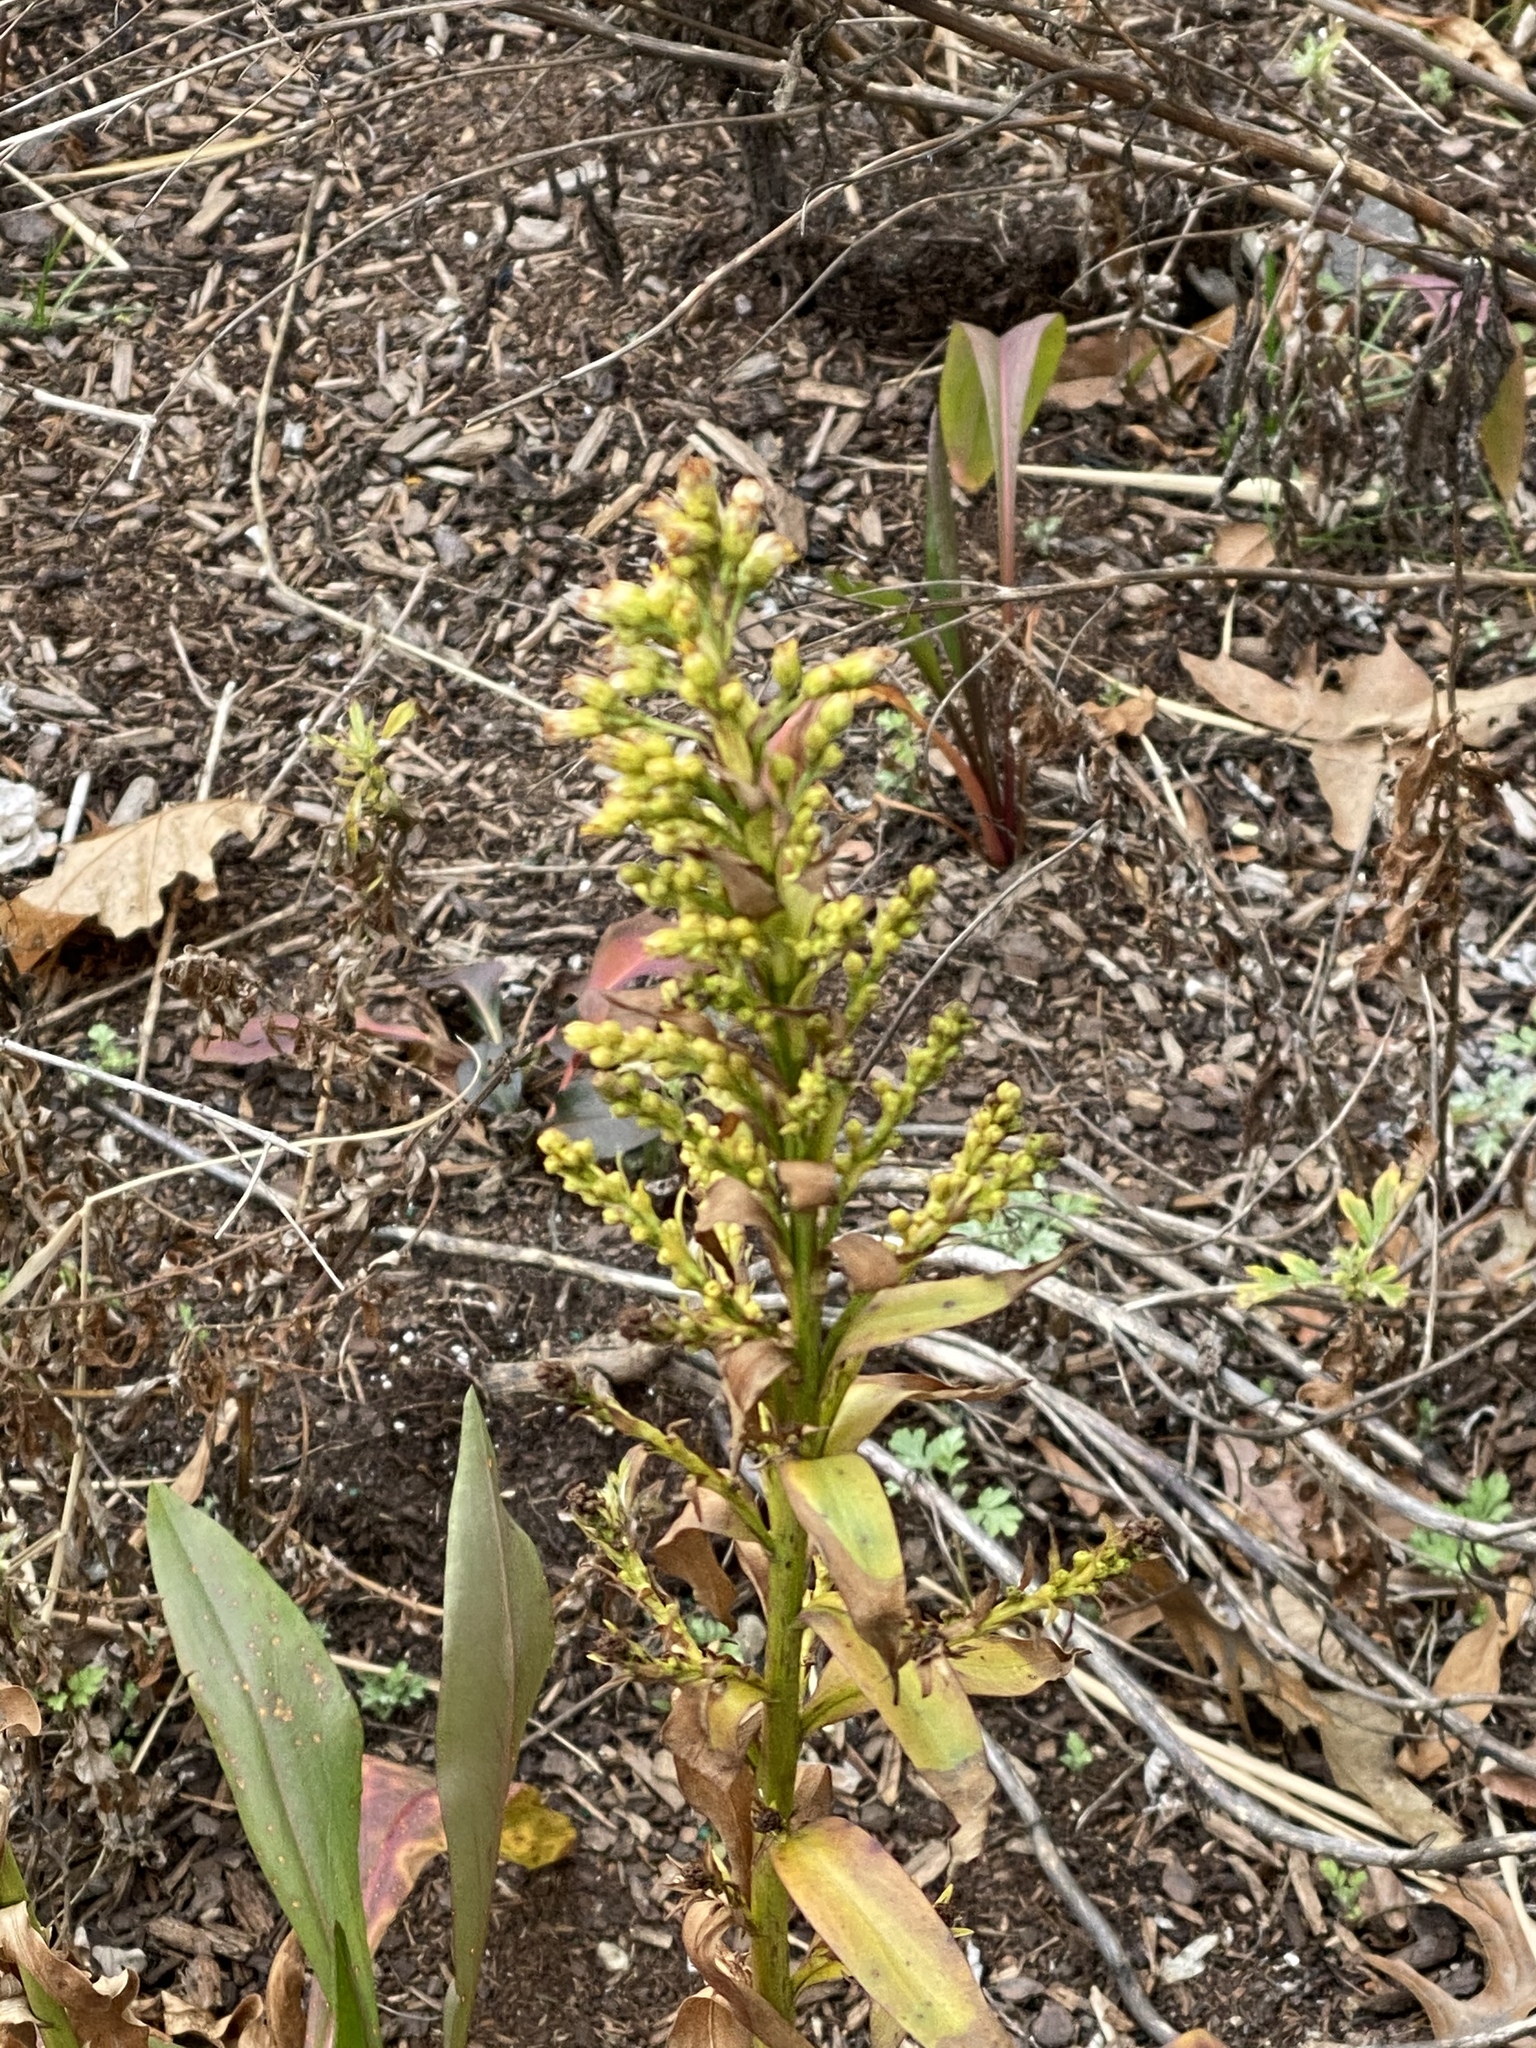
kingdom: Plantae
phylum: Tracheophyta
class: Magnoliopsida
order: Asterales
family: Asteraceae
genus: Solidago
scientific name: Solidago sempervirens
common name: Salt-marsh goldenrod
